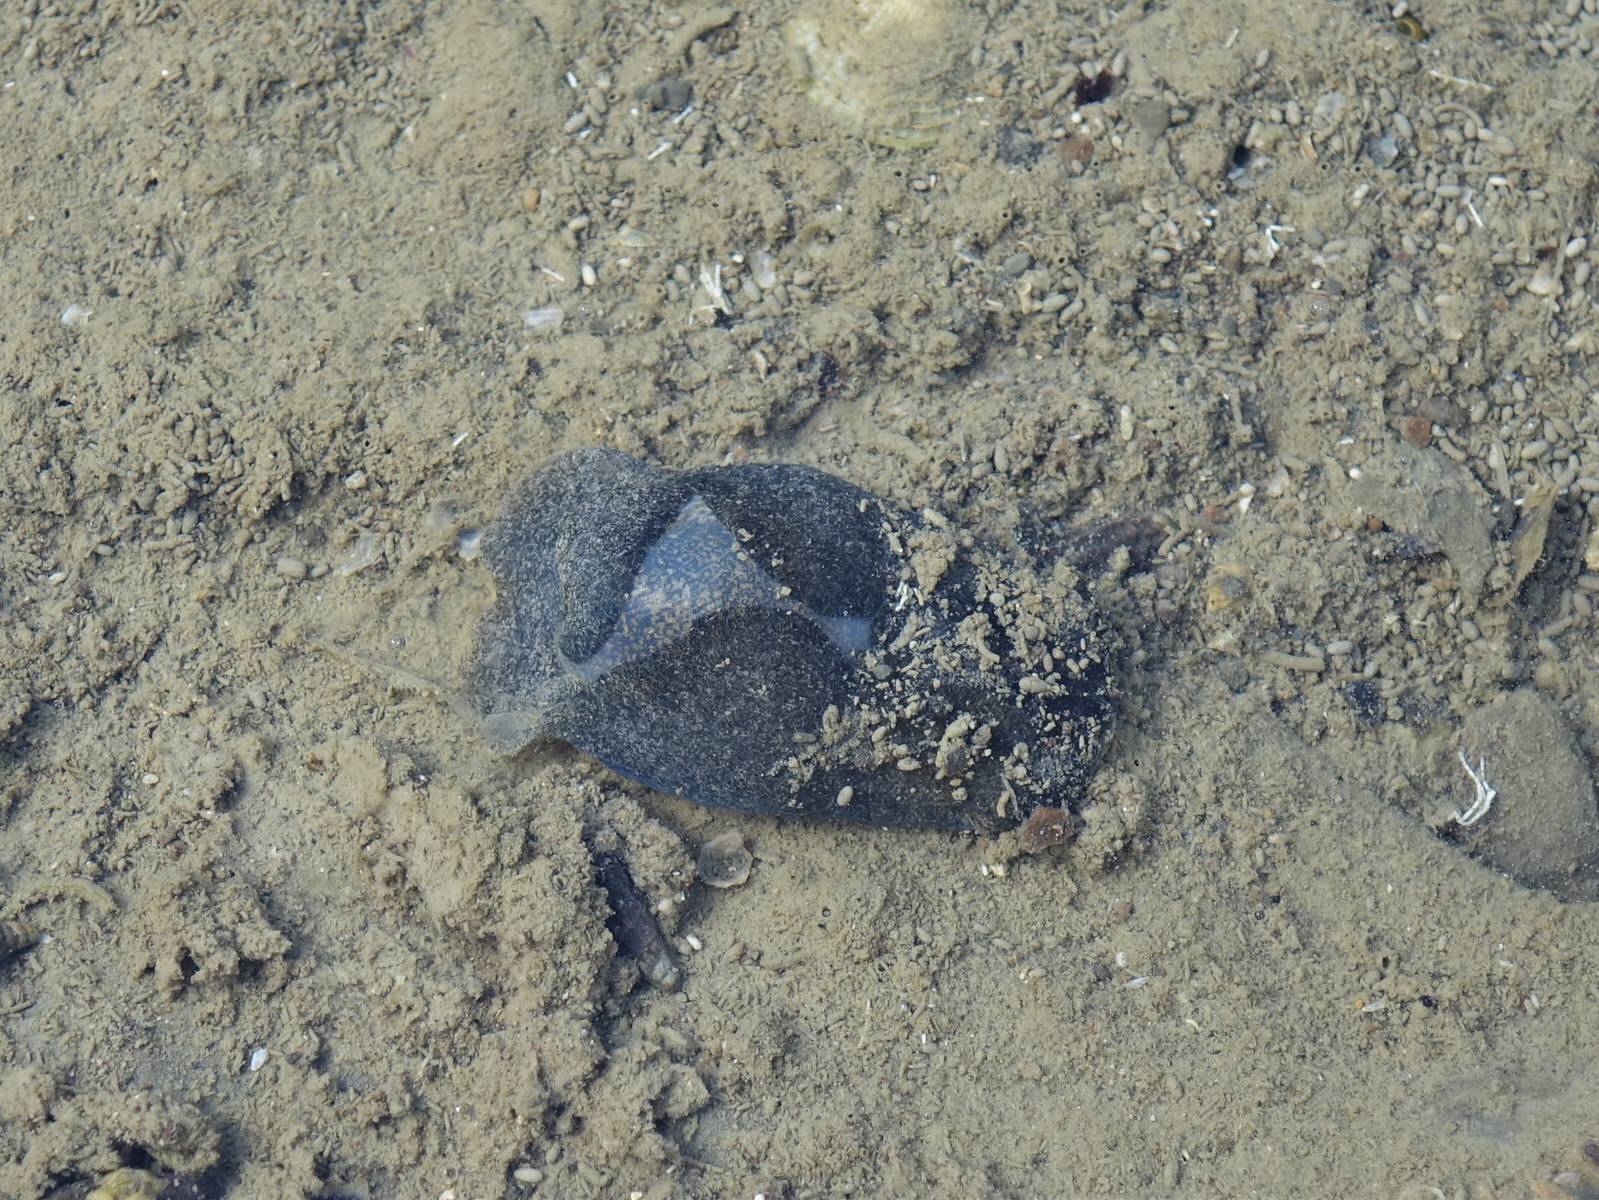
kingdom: Animalia
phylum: Mollusca
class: Gastropoda
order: Cephalaspidea
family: Haminoeidae
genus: Papawera
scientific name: Papawera zelandiae
